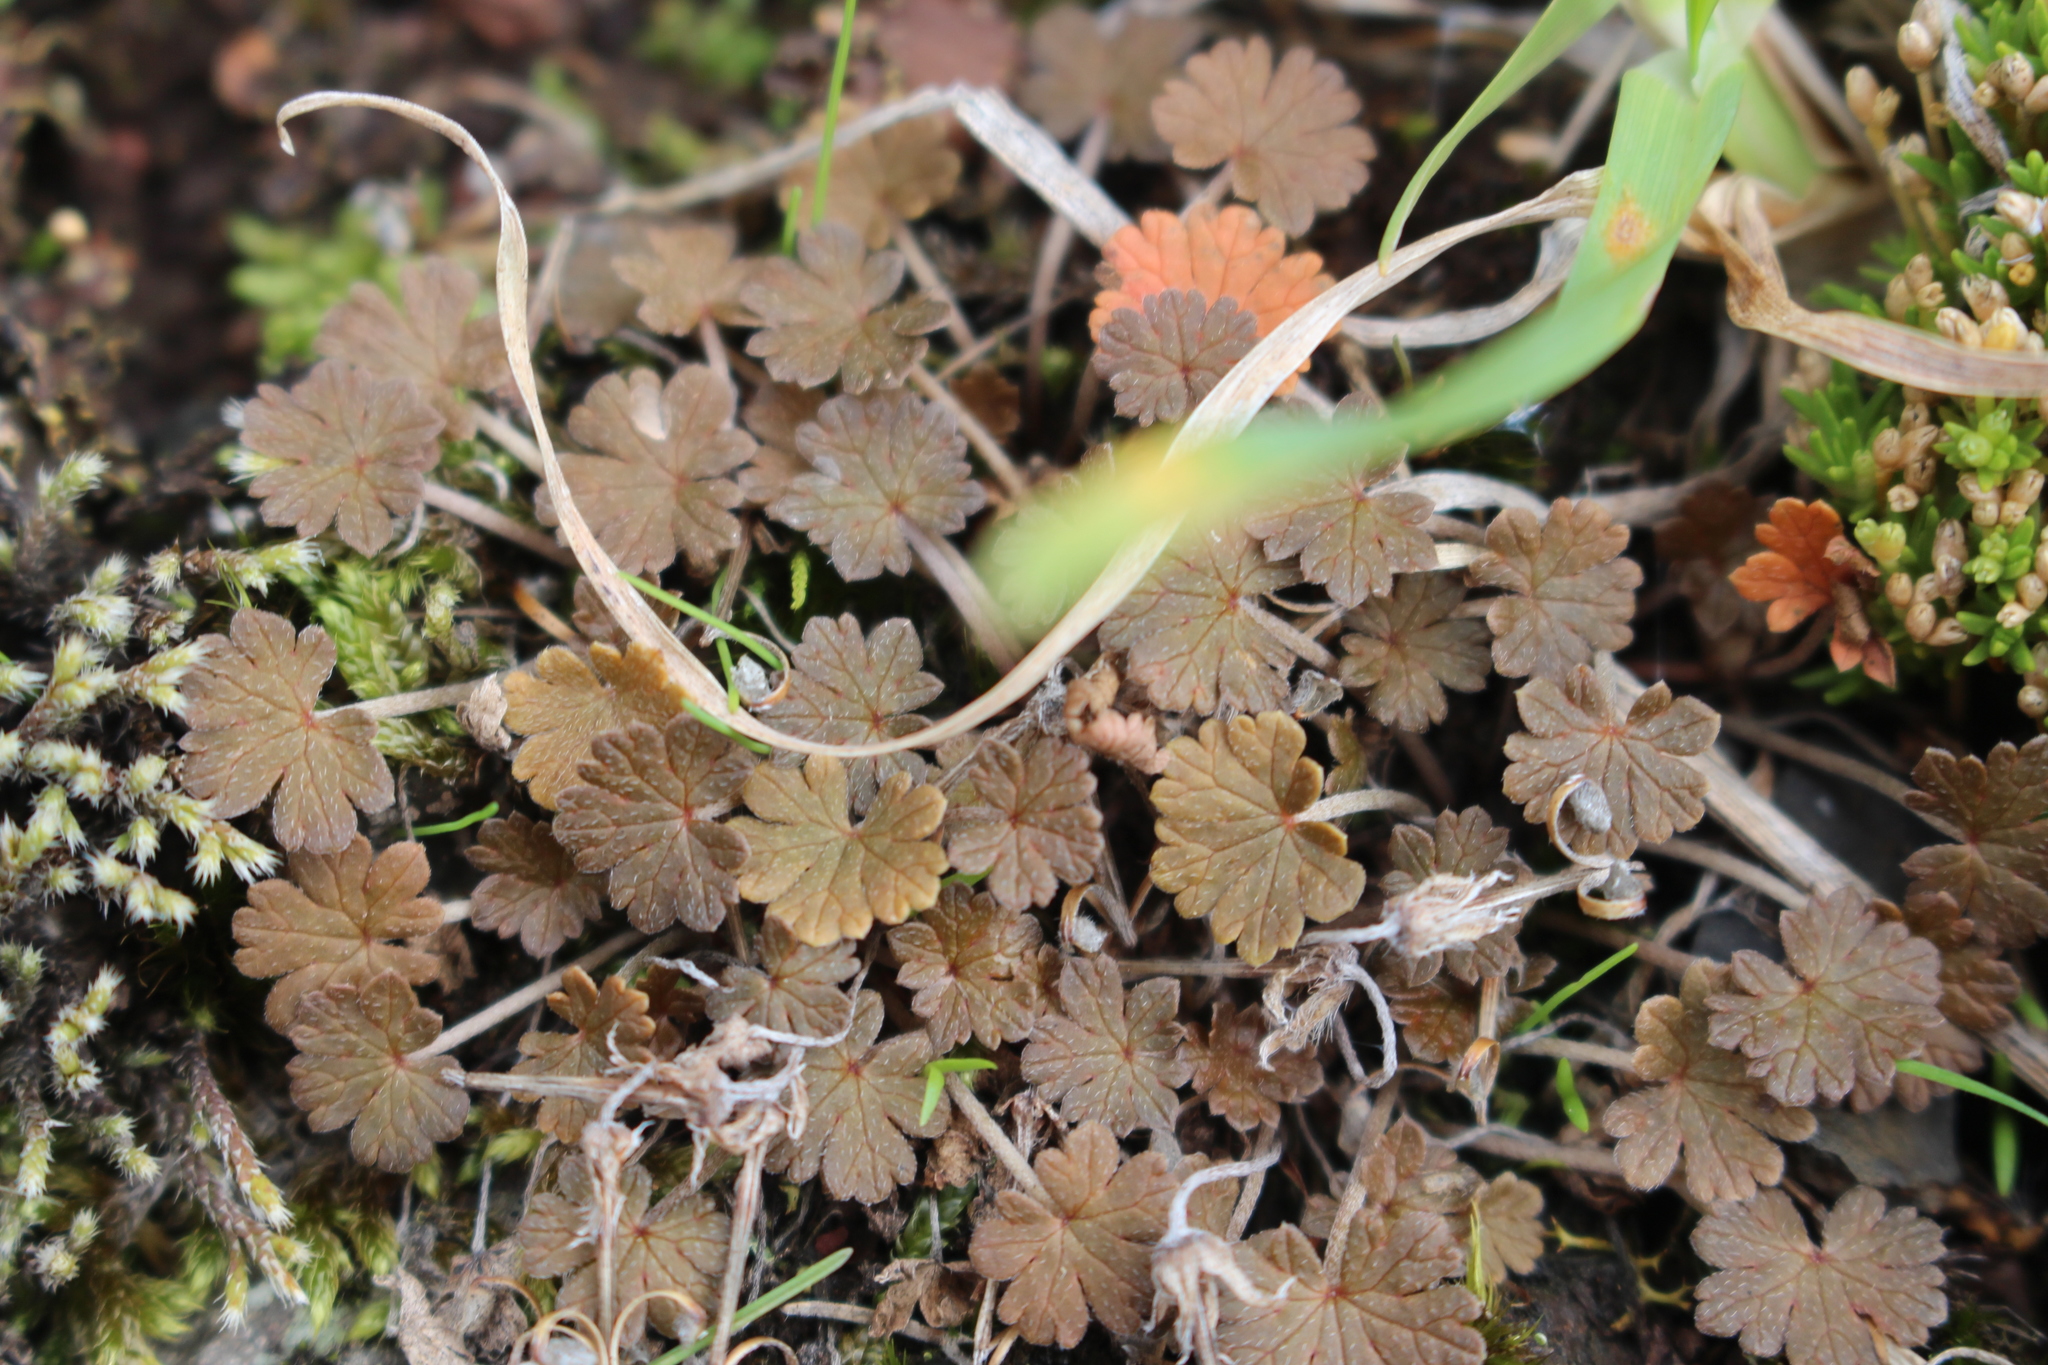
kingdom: Plantae
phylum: Tracheophyta
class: Magnoliopsida
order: Geraniales
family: Geraniaceae
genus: Geranium
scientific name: Geranium brevicaule
